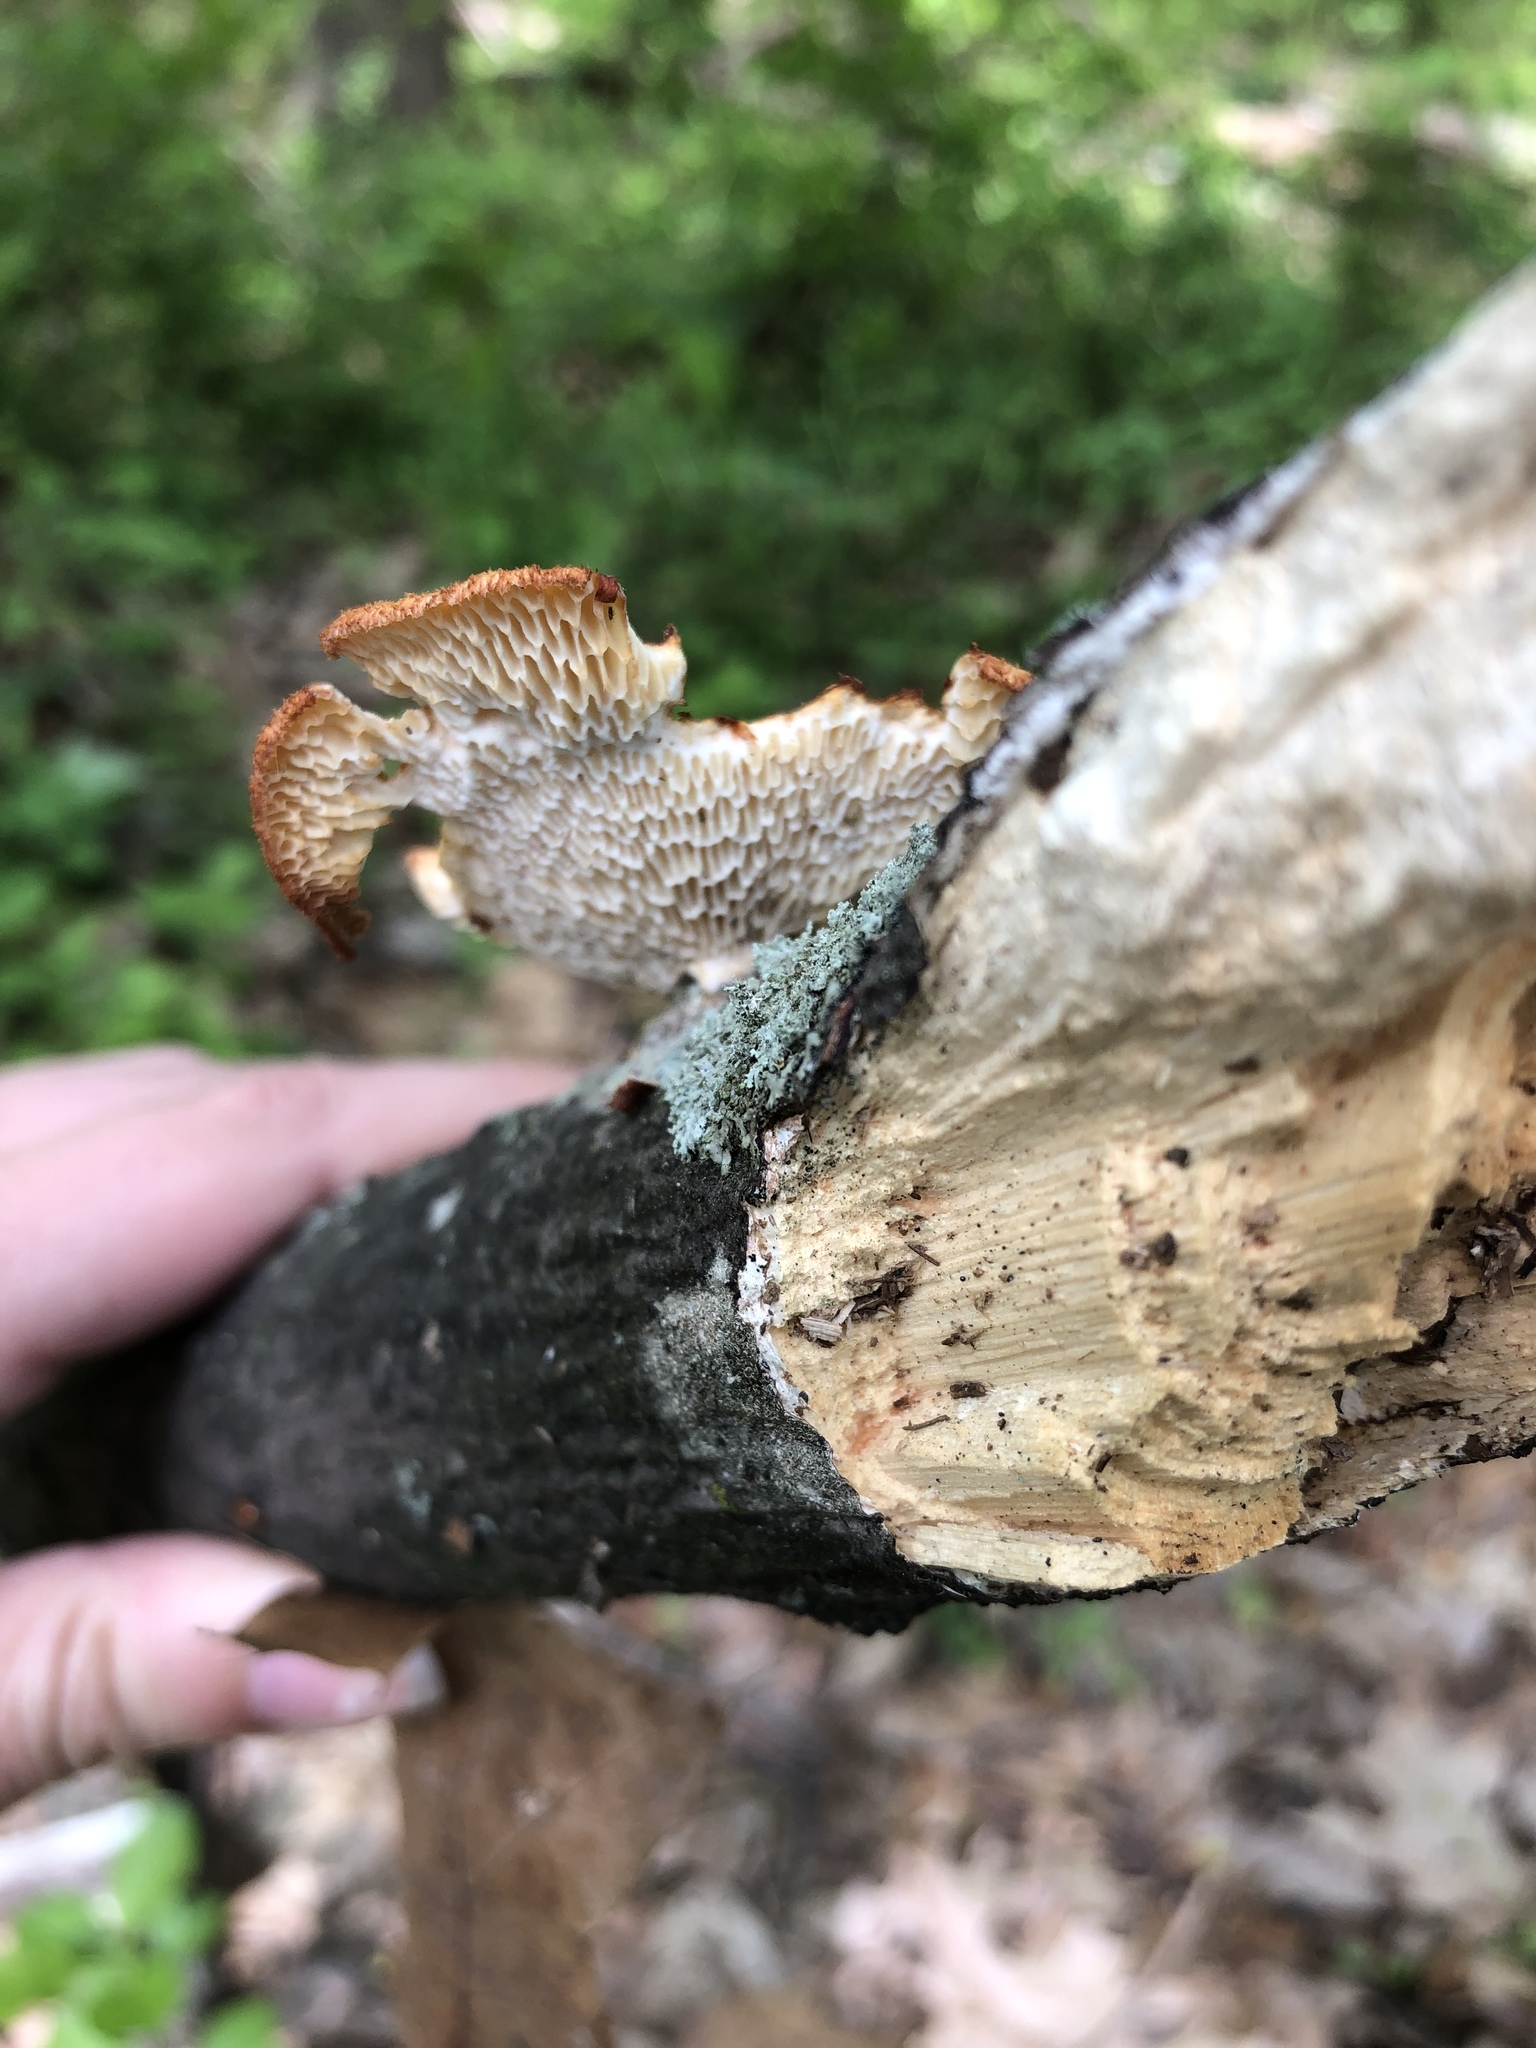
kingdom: Fungi
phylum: Basidiomycota
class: Agaricomycetes
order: Polyporales
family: Polyporaceae
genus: Neofavolus
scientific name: Neofavolus alveolaris
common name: Hexagonal-pored polypore
